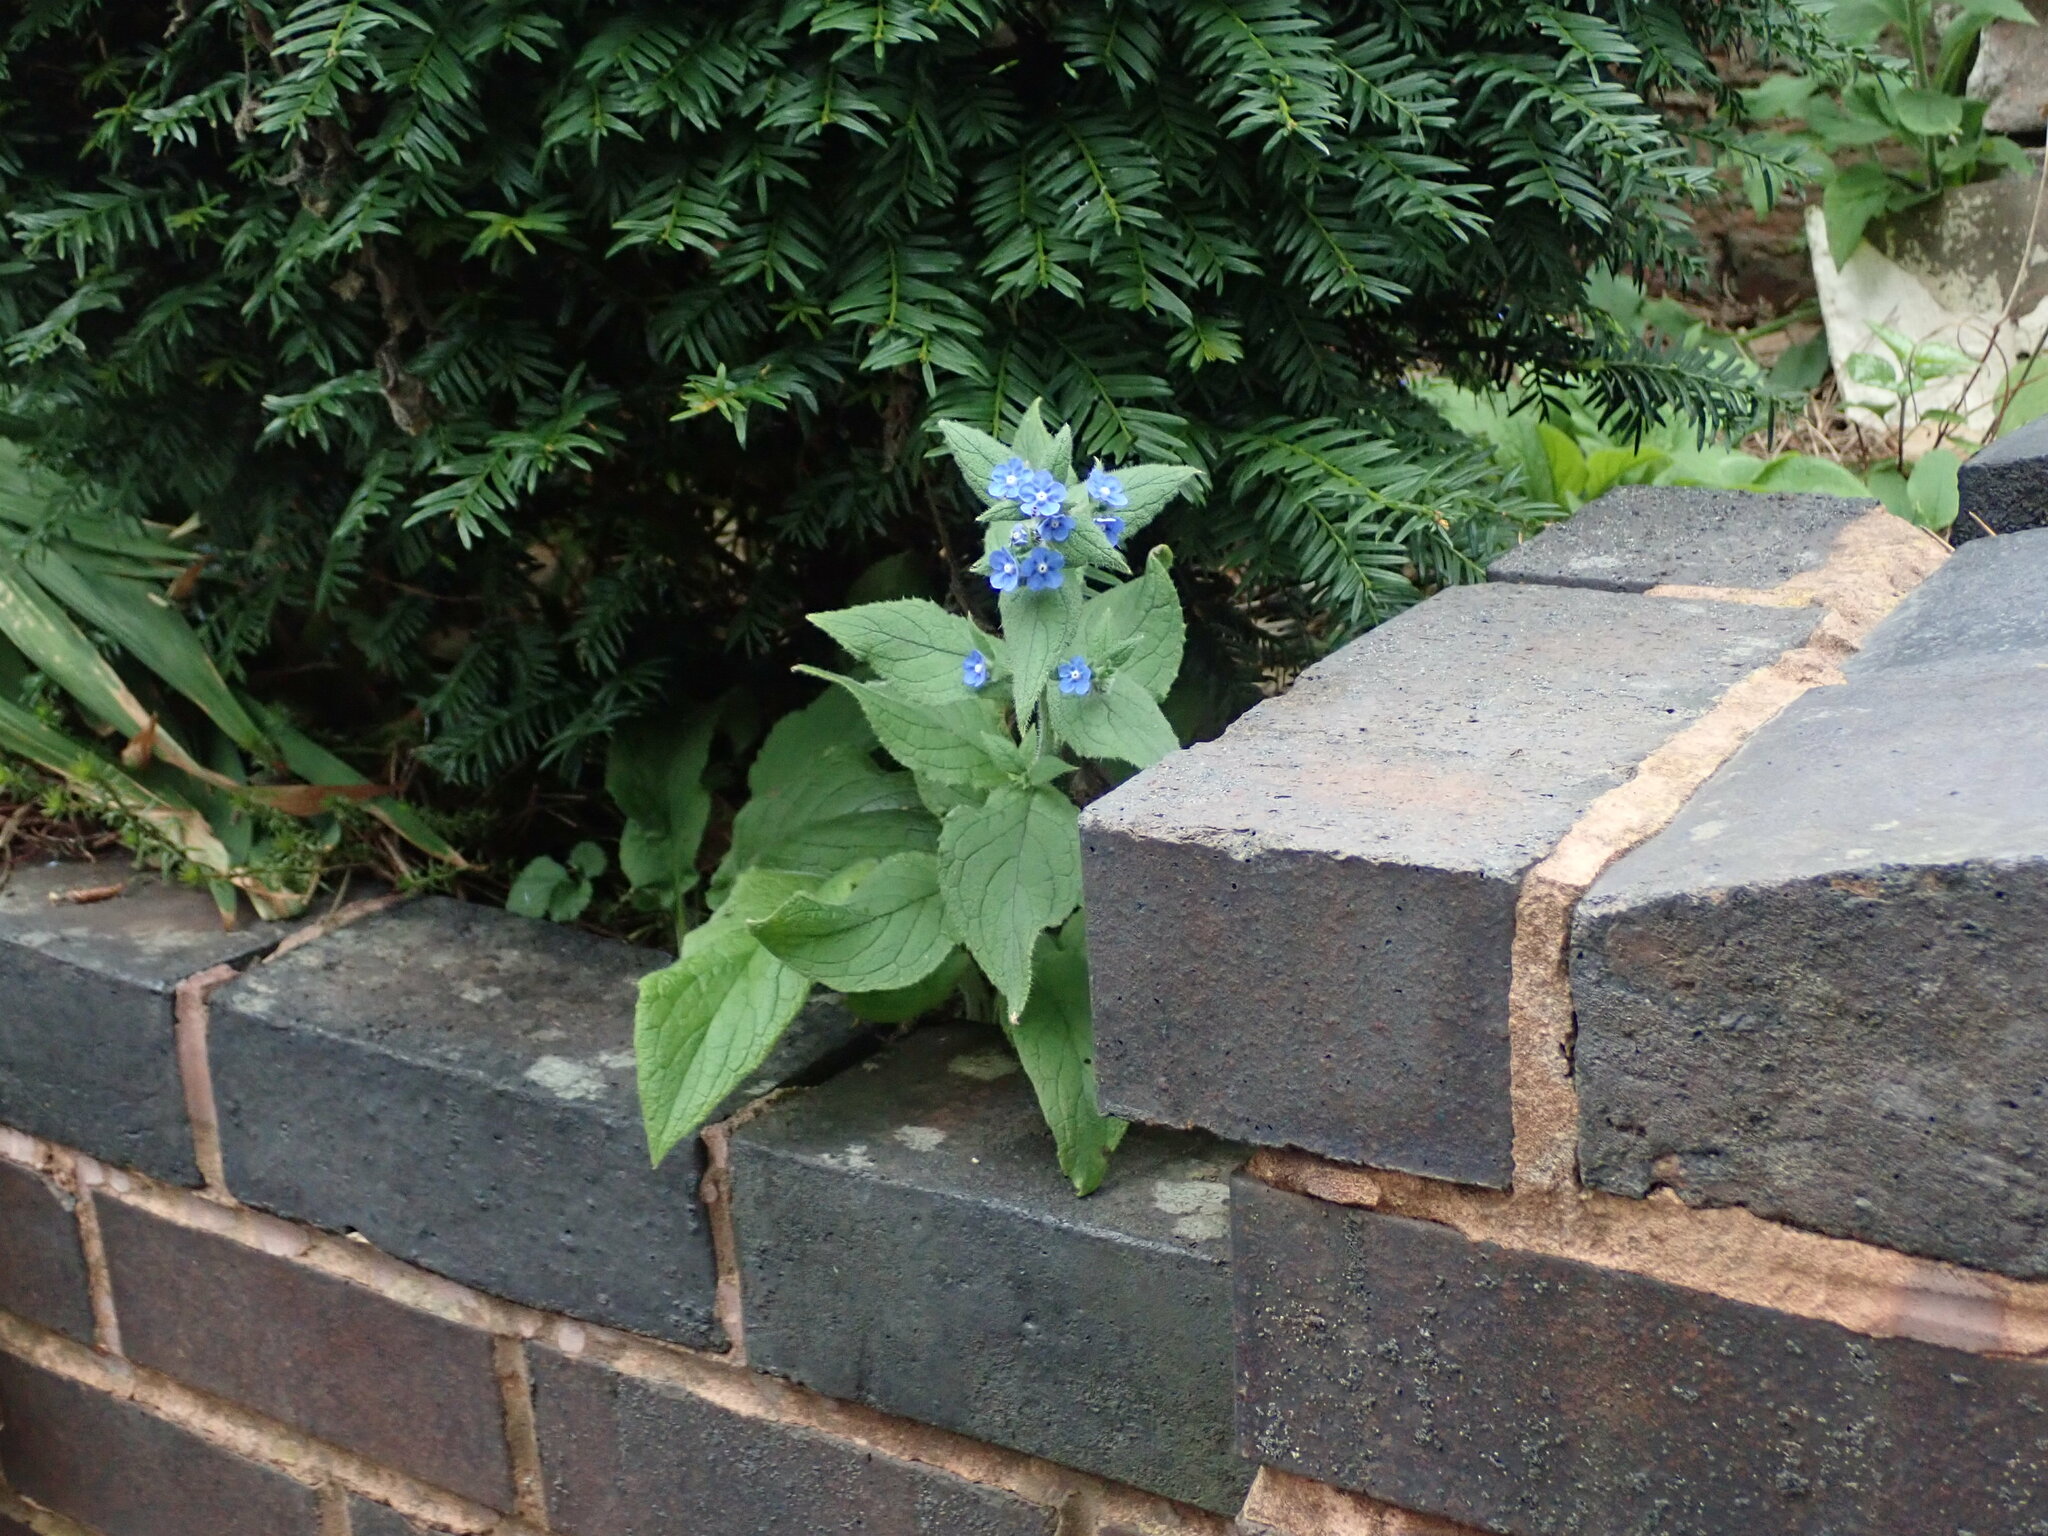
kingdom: Plantae
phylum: Tracheophyta
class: Magnoliopsida
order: Boraginales
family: Boraginaceae
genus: Pentaglottis
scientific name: Pentaglottis sempervirens
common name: Green alkanet
